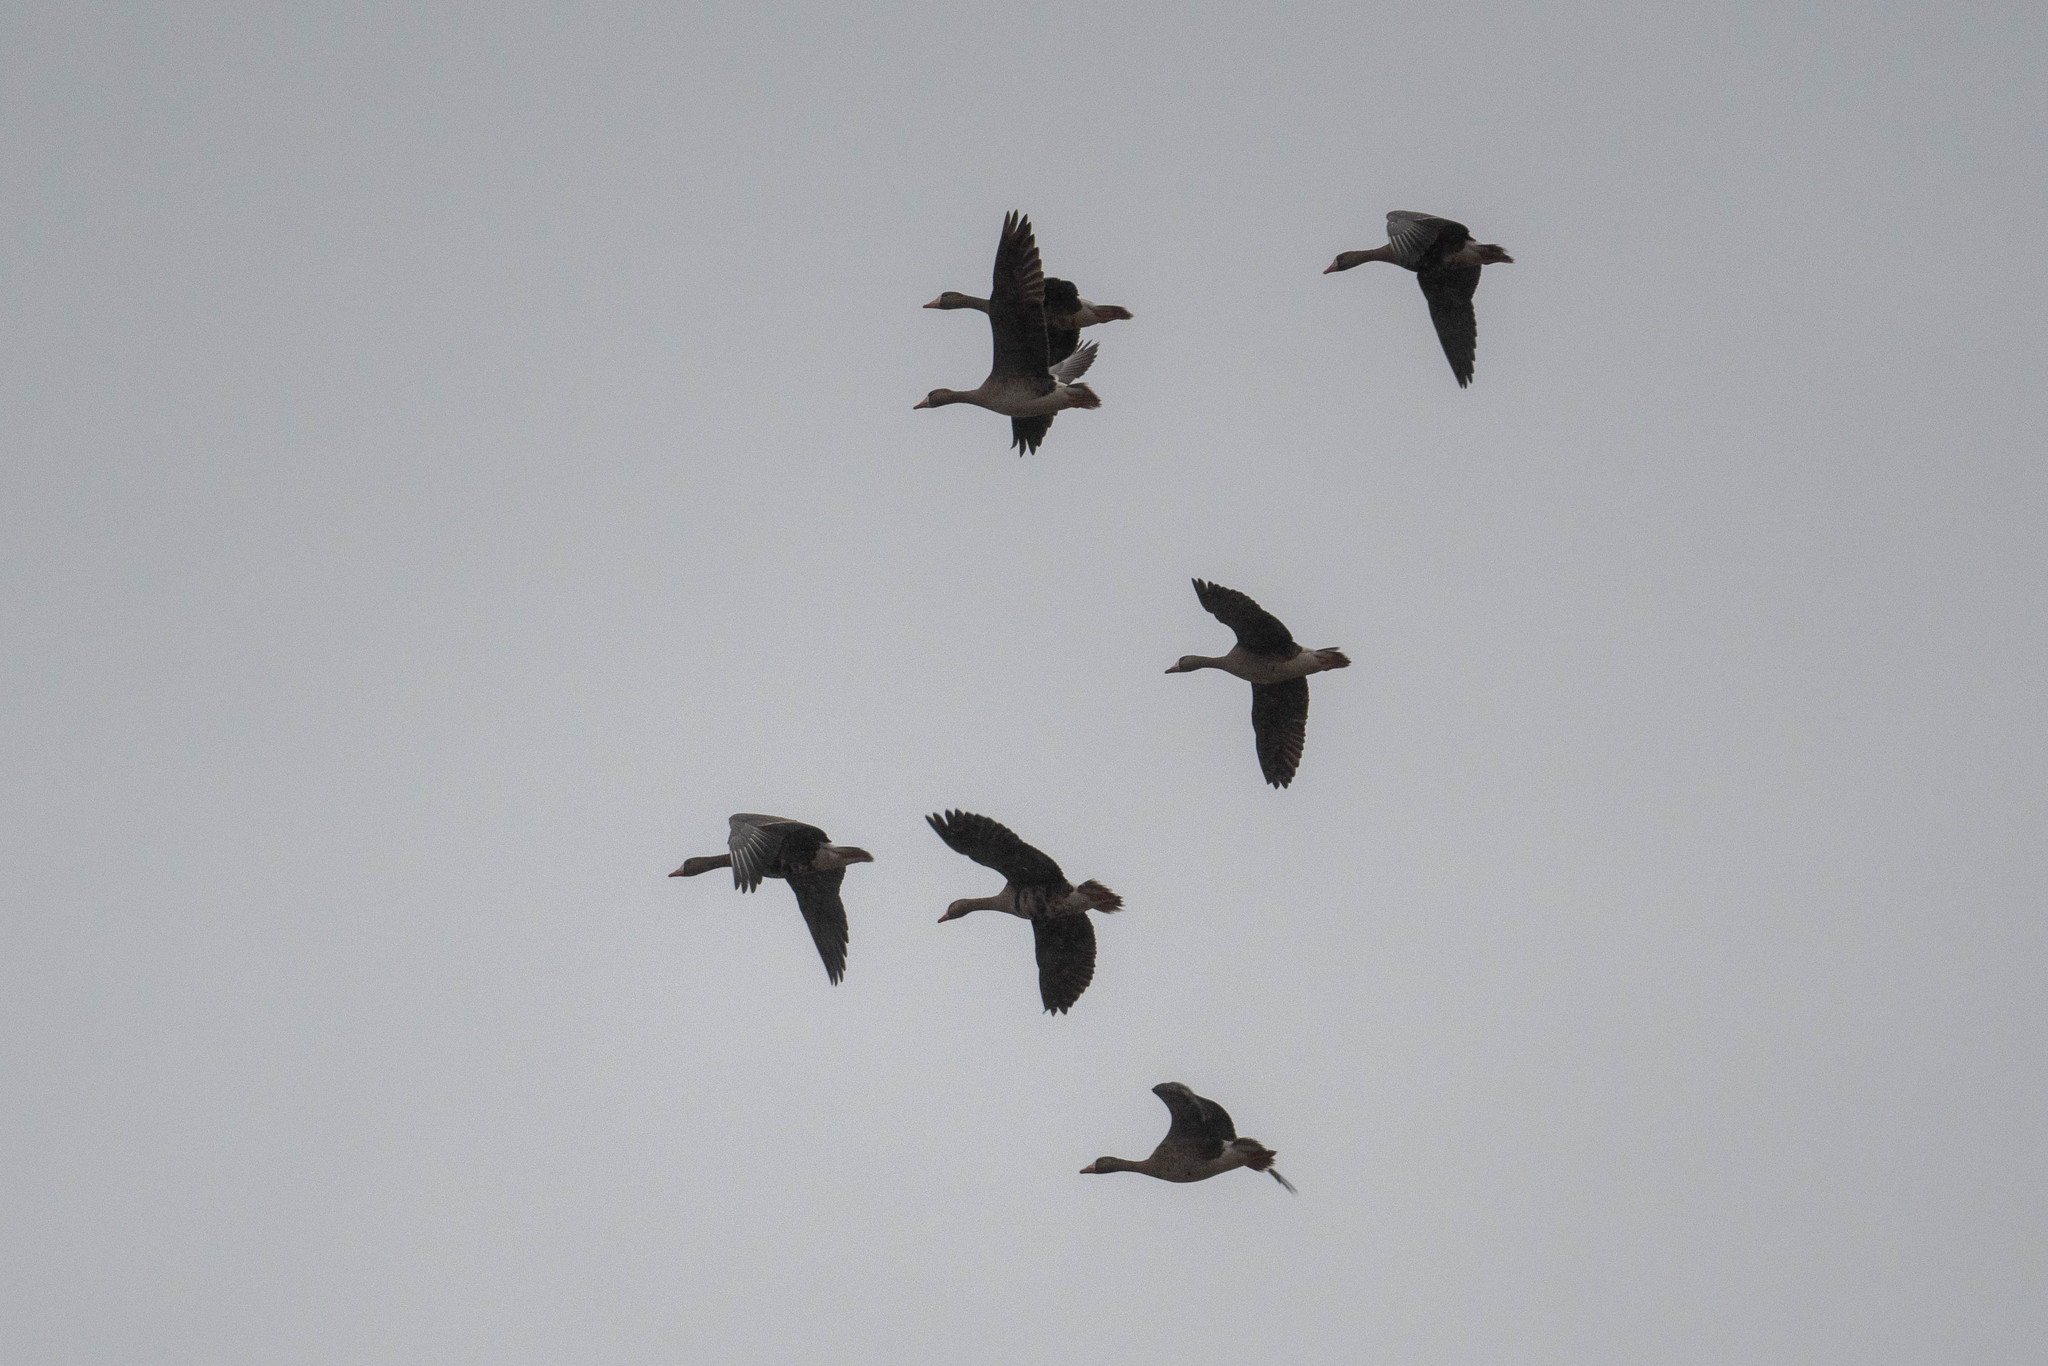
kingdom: Animalia
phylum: Chordata
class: Aves
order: Anseriformes
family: Anatidae
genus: Anser
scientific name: Anser albifrons
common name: Greater white-fronted goose
